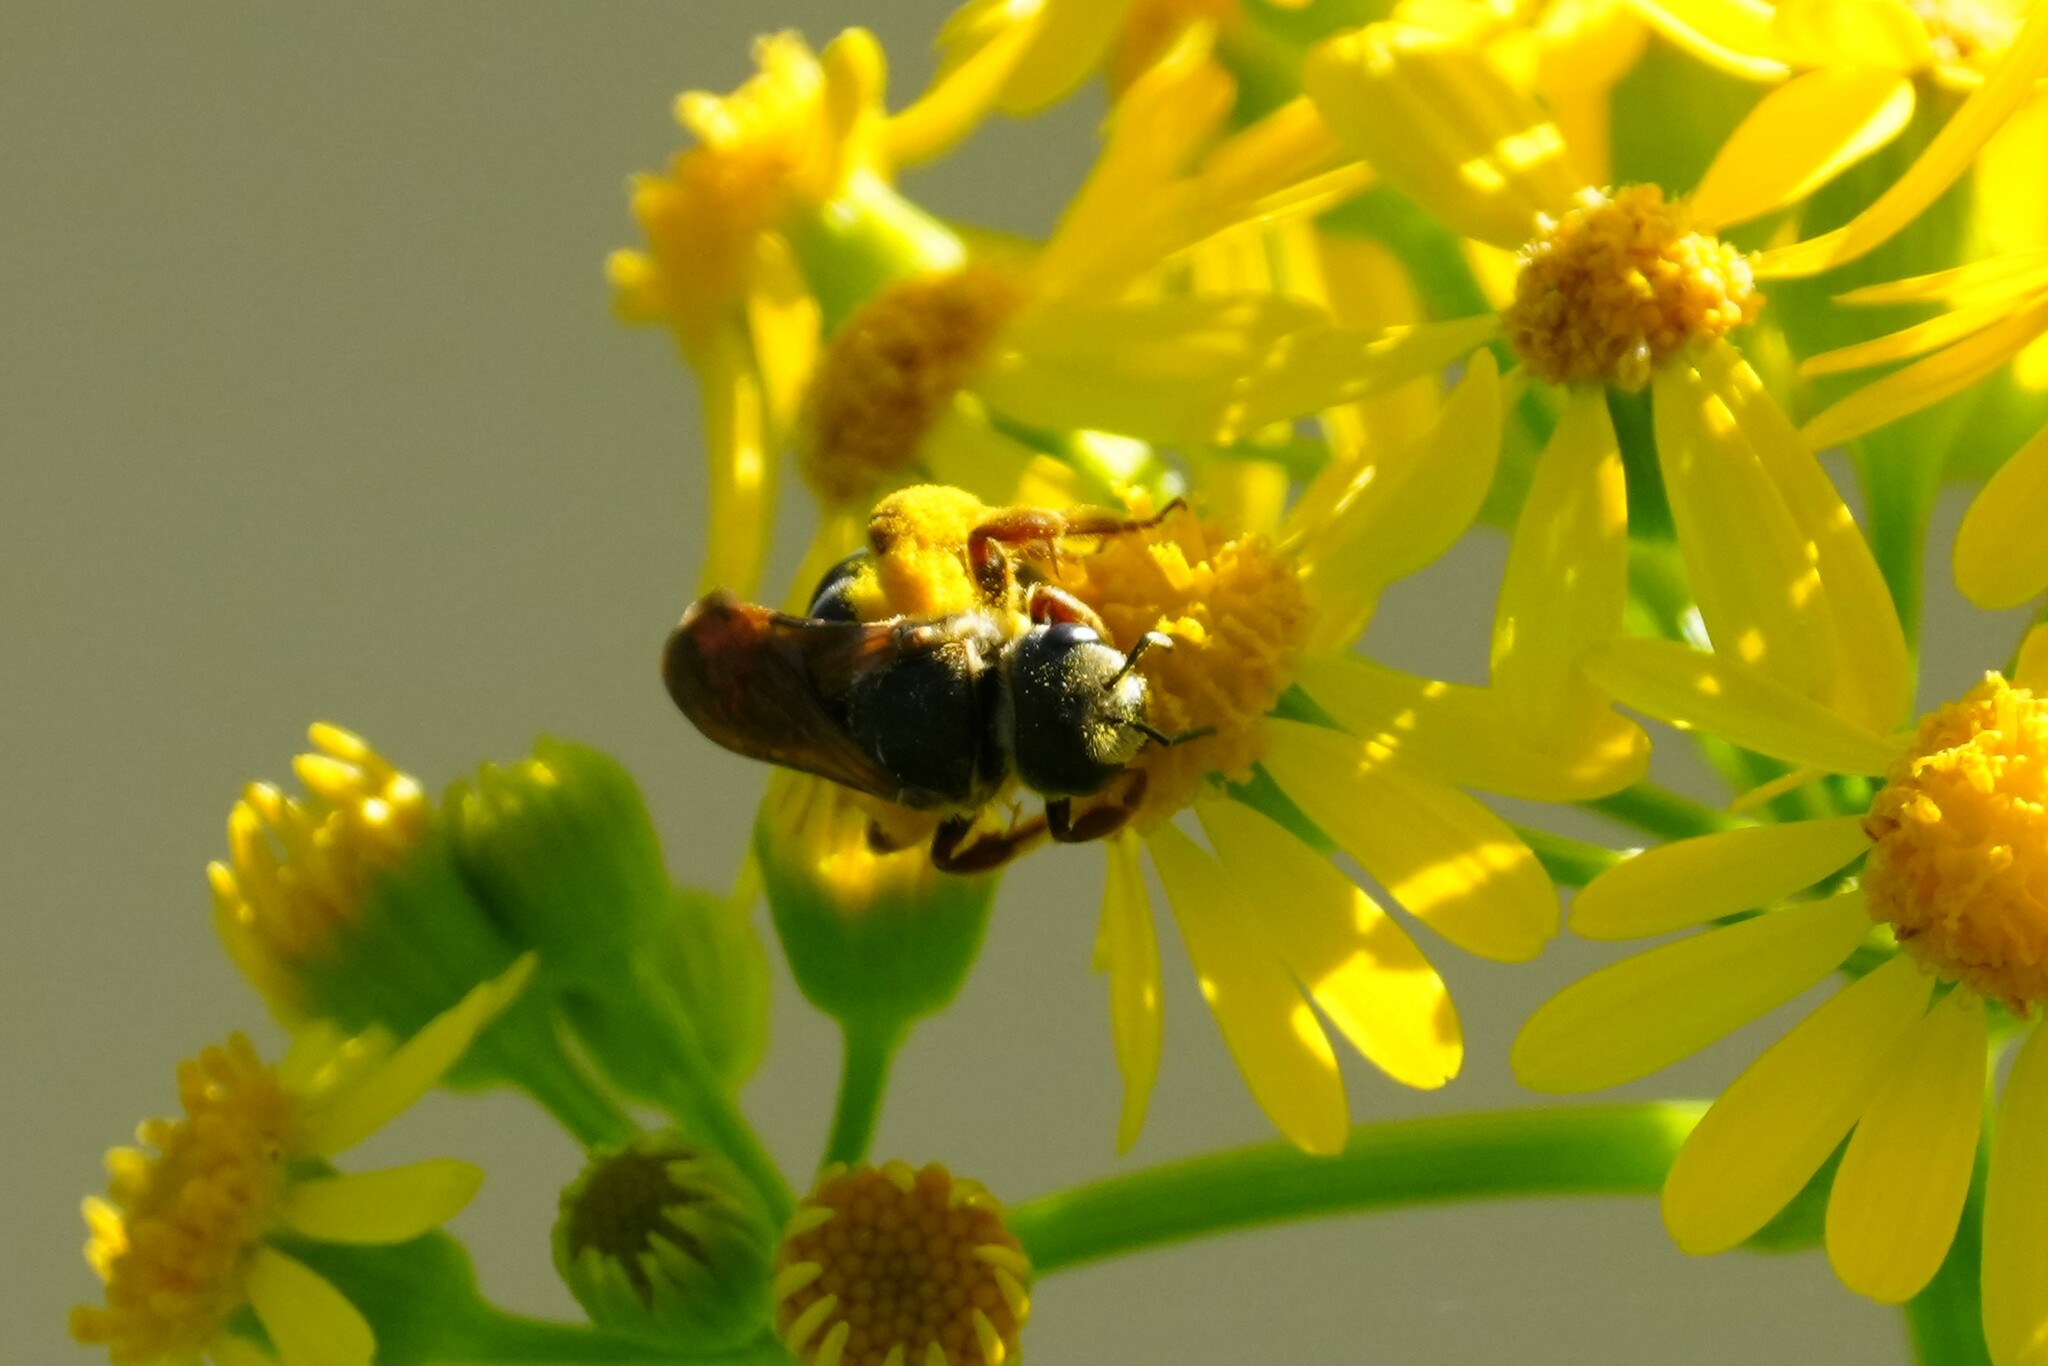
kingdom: Animalia
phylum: Arthropoda
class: Insecta
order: Hymenoptera
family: Halictidae
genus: Halictus
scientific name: Halictus parallelus
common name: Parallel-striped sweat bee
